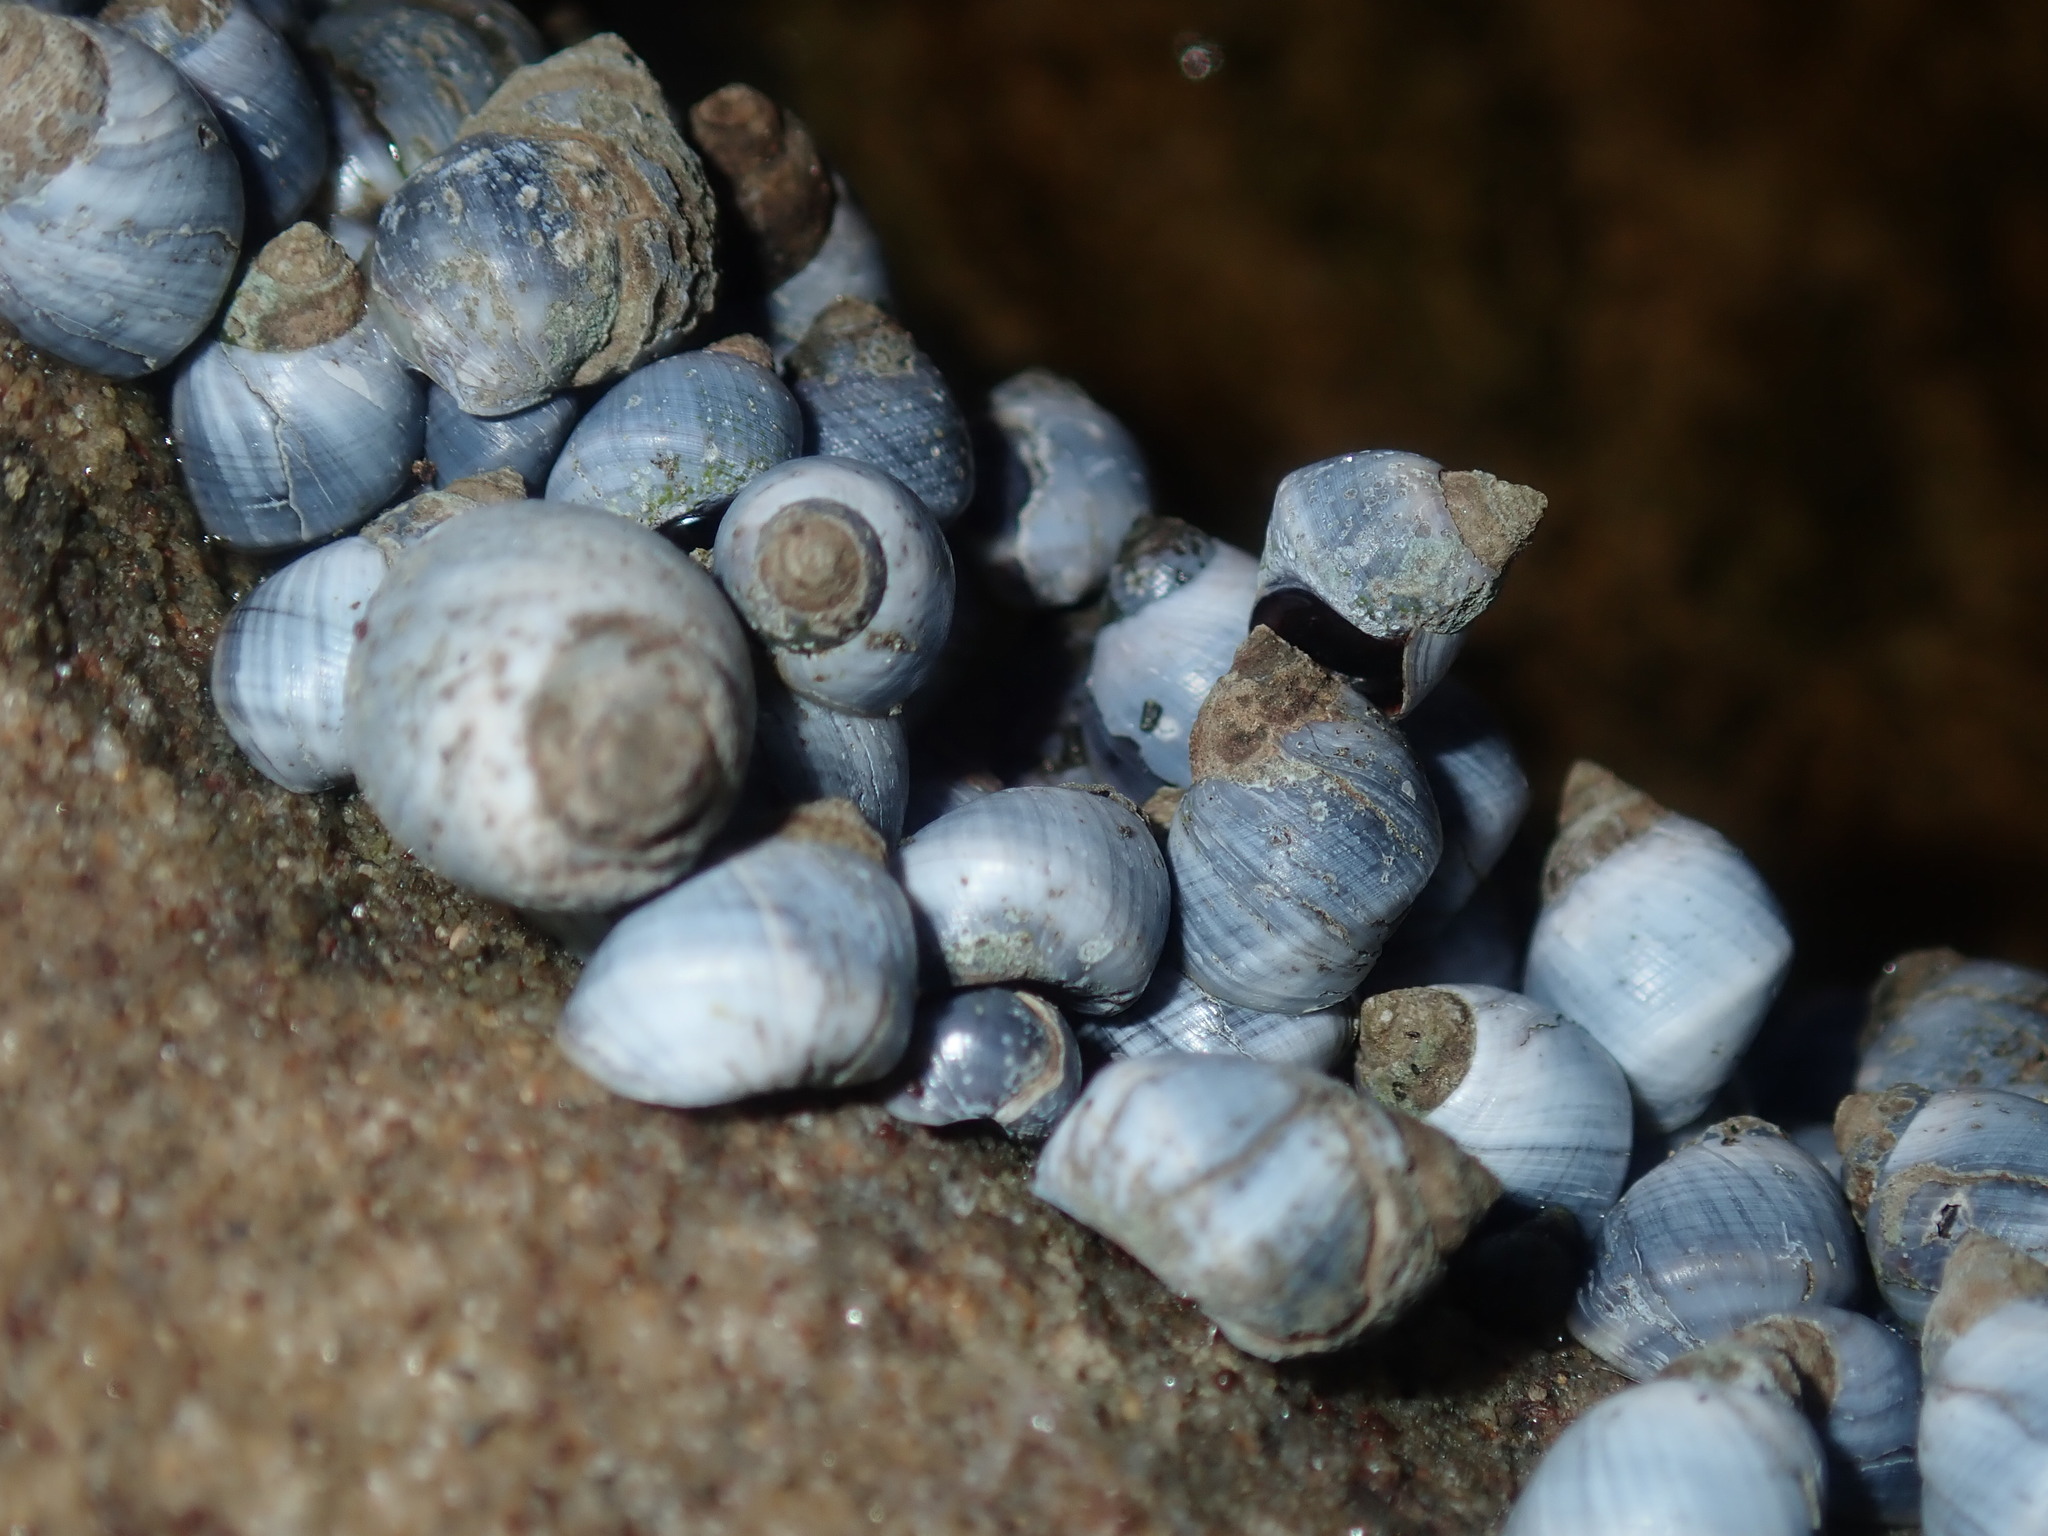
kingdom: Animalia
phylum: Mollusca
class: Gastropoda
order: Littorinimorpha
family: Littorinidae
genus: Austrolittorina
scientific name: Austrolittorina unifasciata
